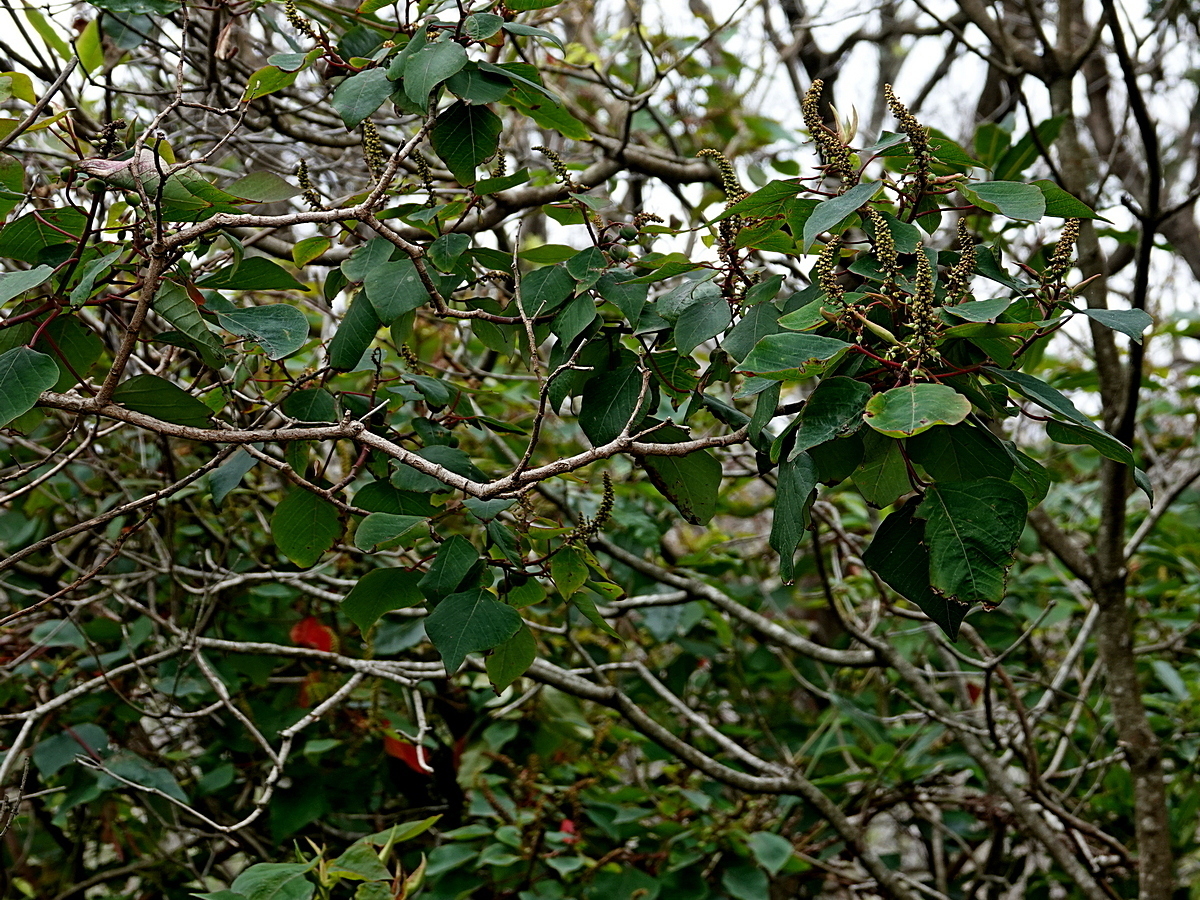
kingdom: Plantae
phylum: Tracheophyta
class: Magnoliopsida
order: Malpighiales
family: Euphorbiaceae
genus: Homalanthus
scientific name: Homalanthus populifolius
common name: Queensland poplar
